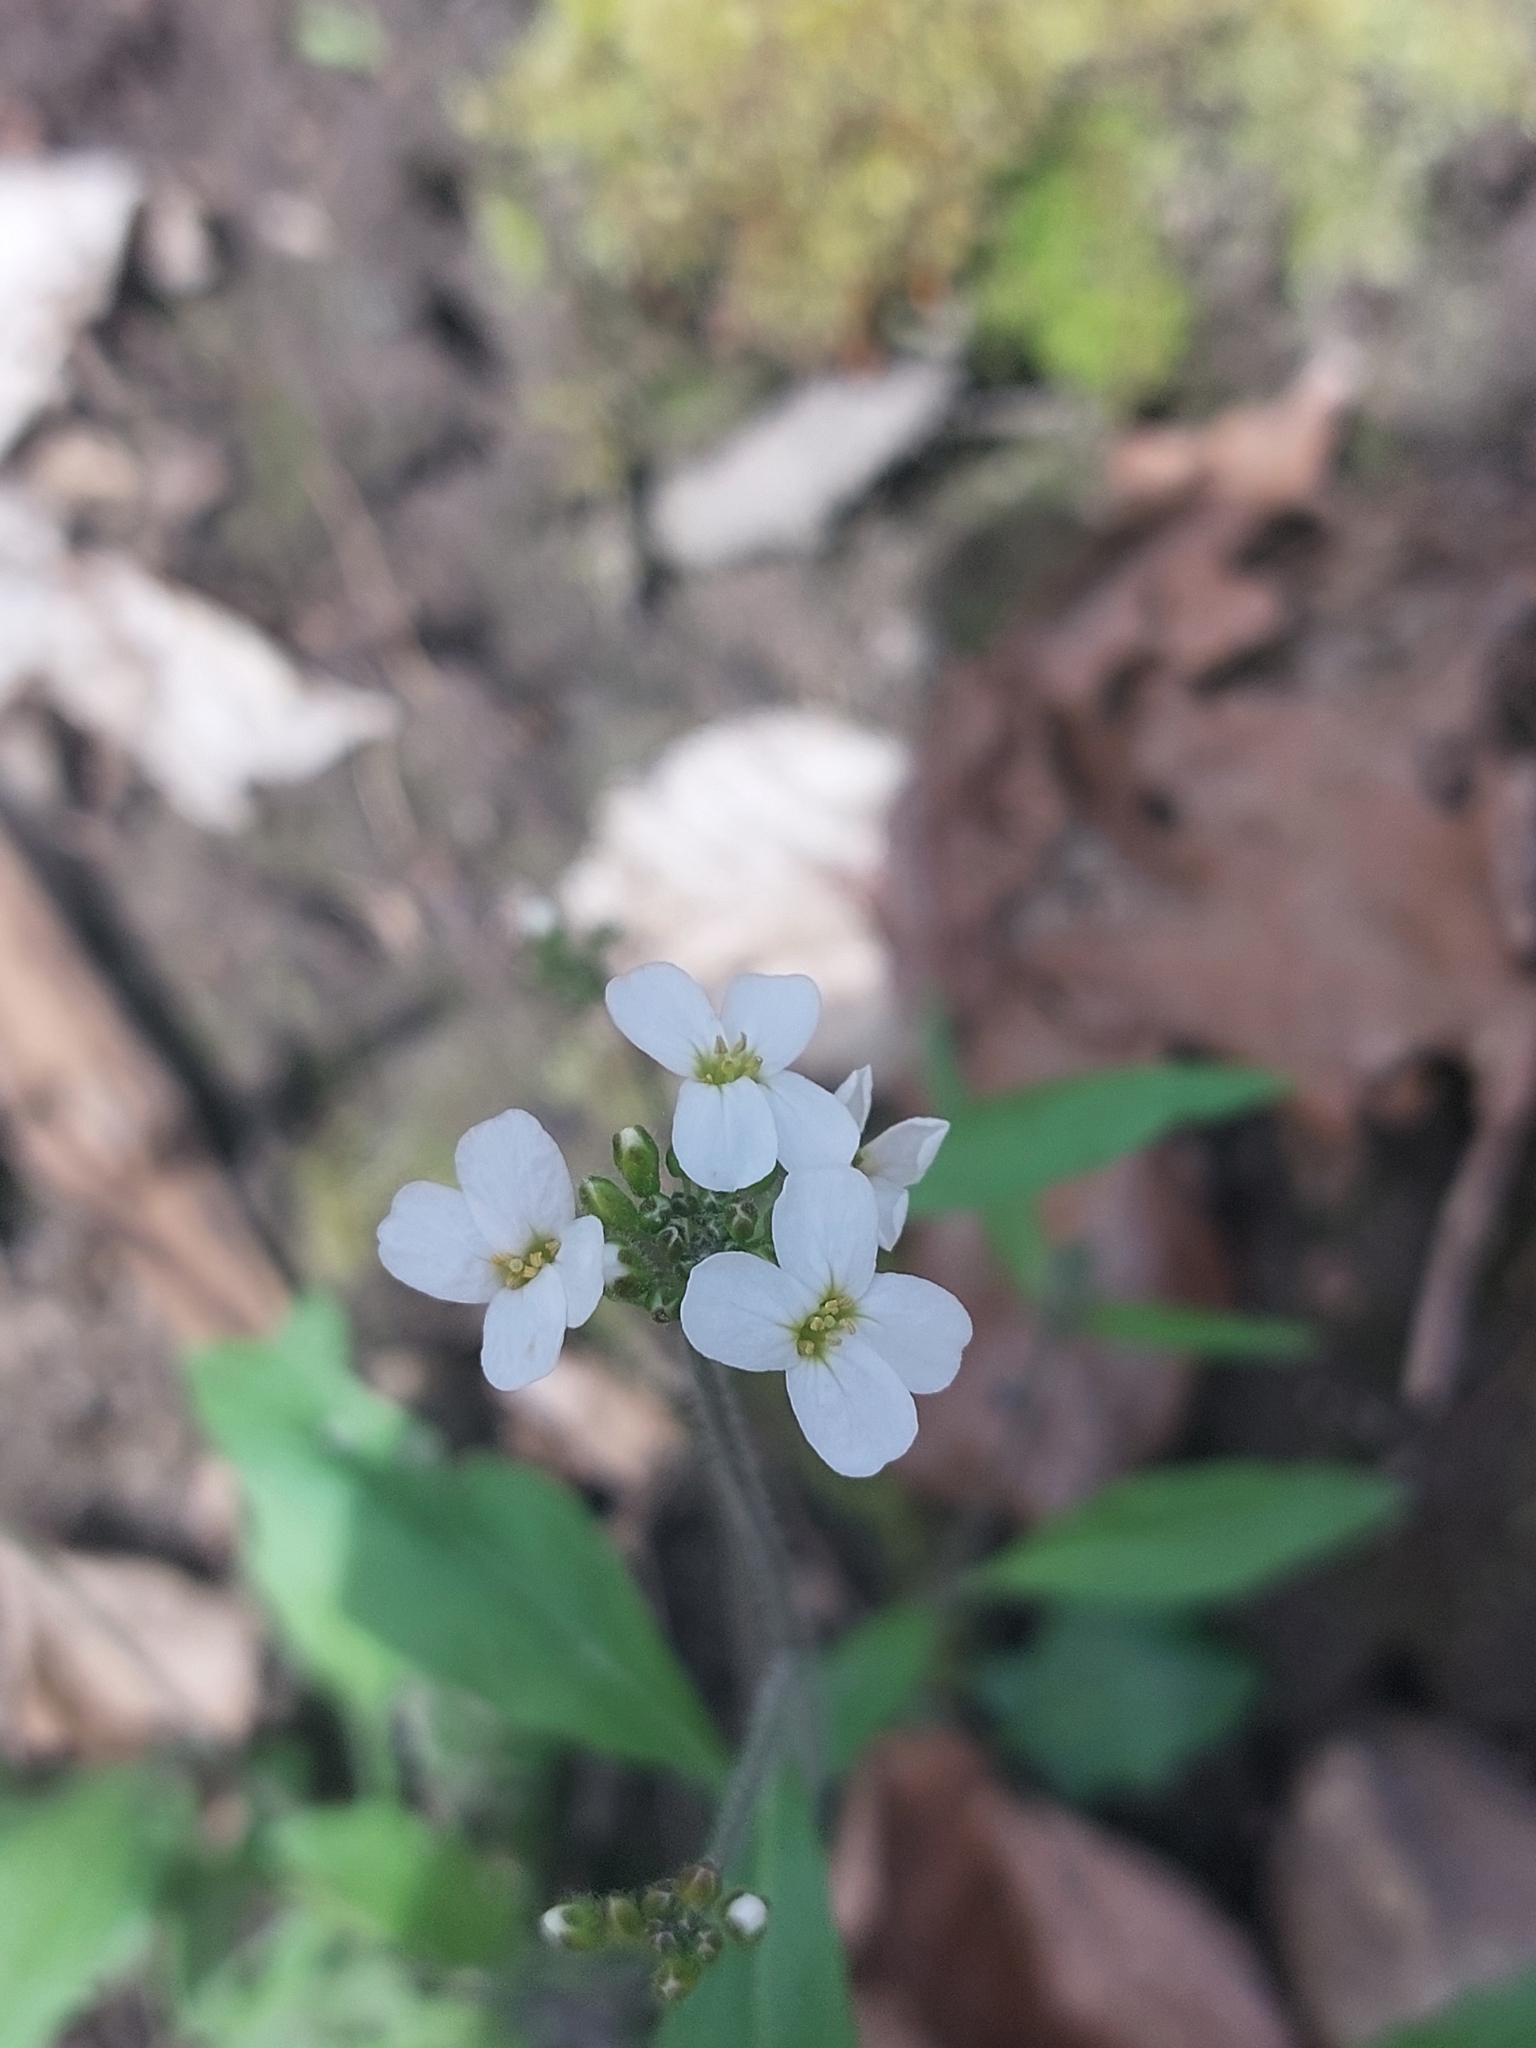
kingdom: Plantae
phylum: Tracheophyta
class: Magnoliopsida
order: Brassicales
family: Brassicaceae
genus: Arabidopsis
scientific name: Arabidopsis arenosa
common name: Sand rock-cress
